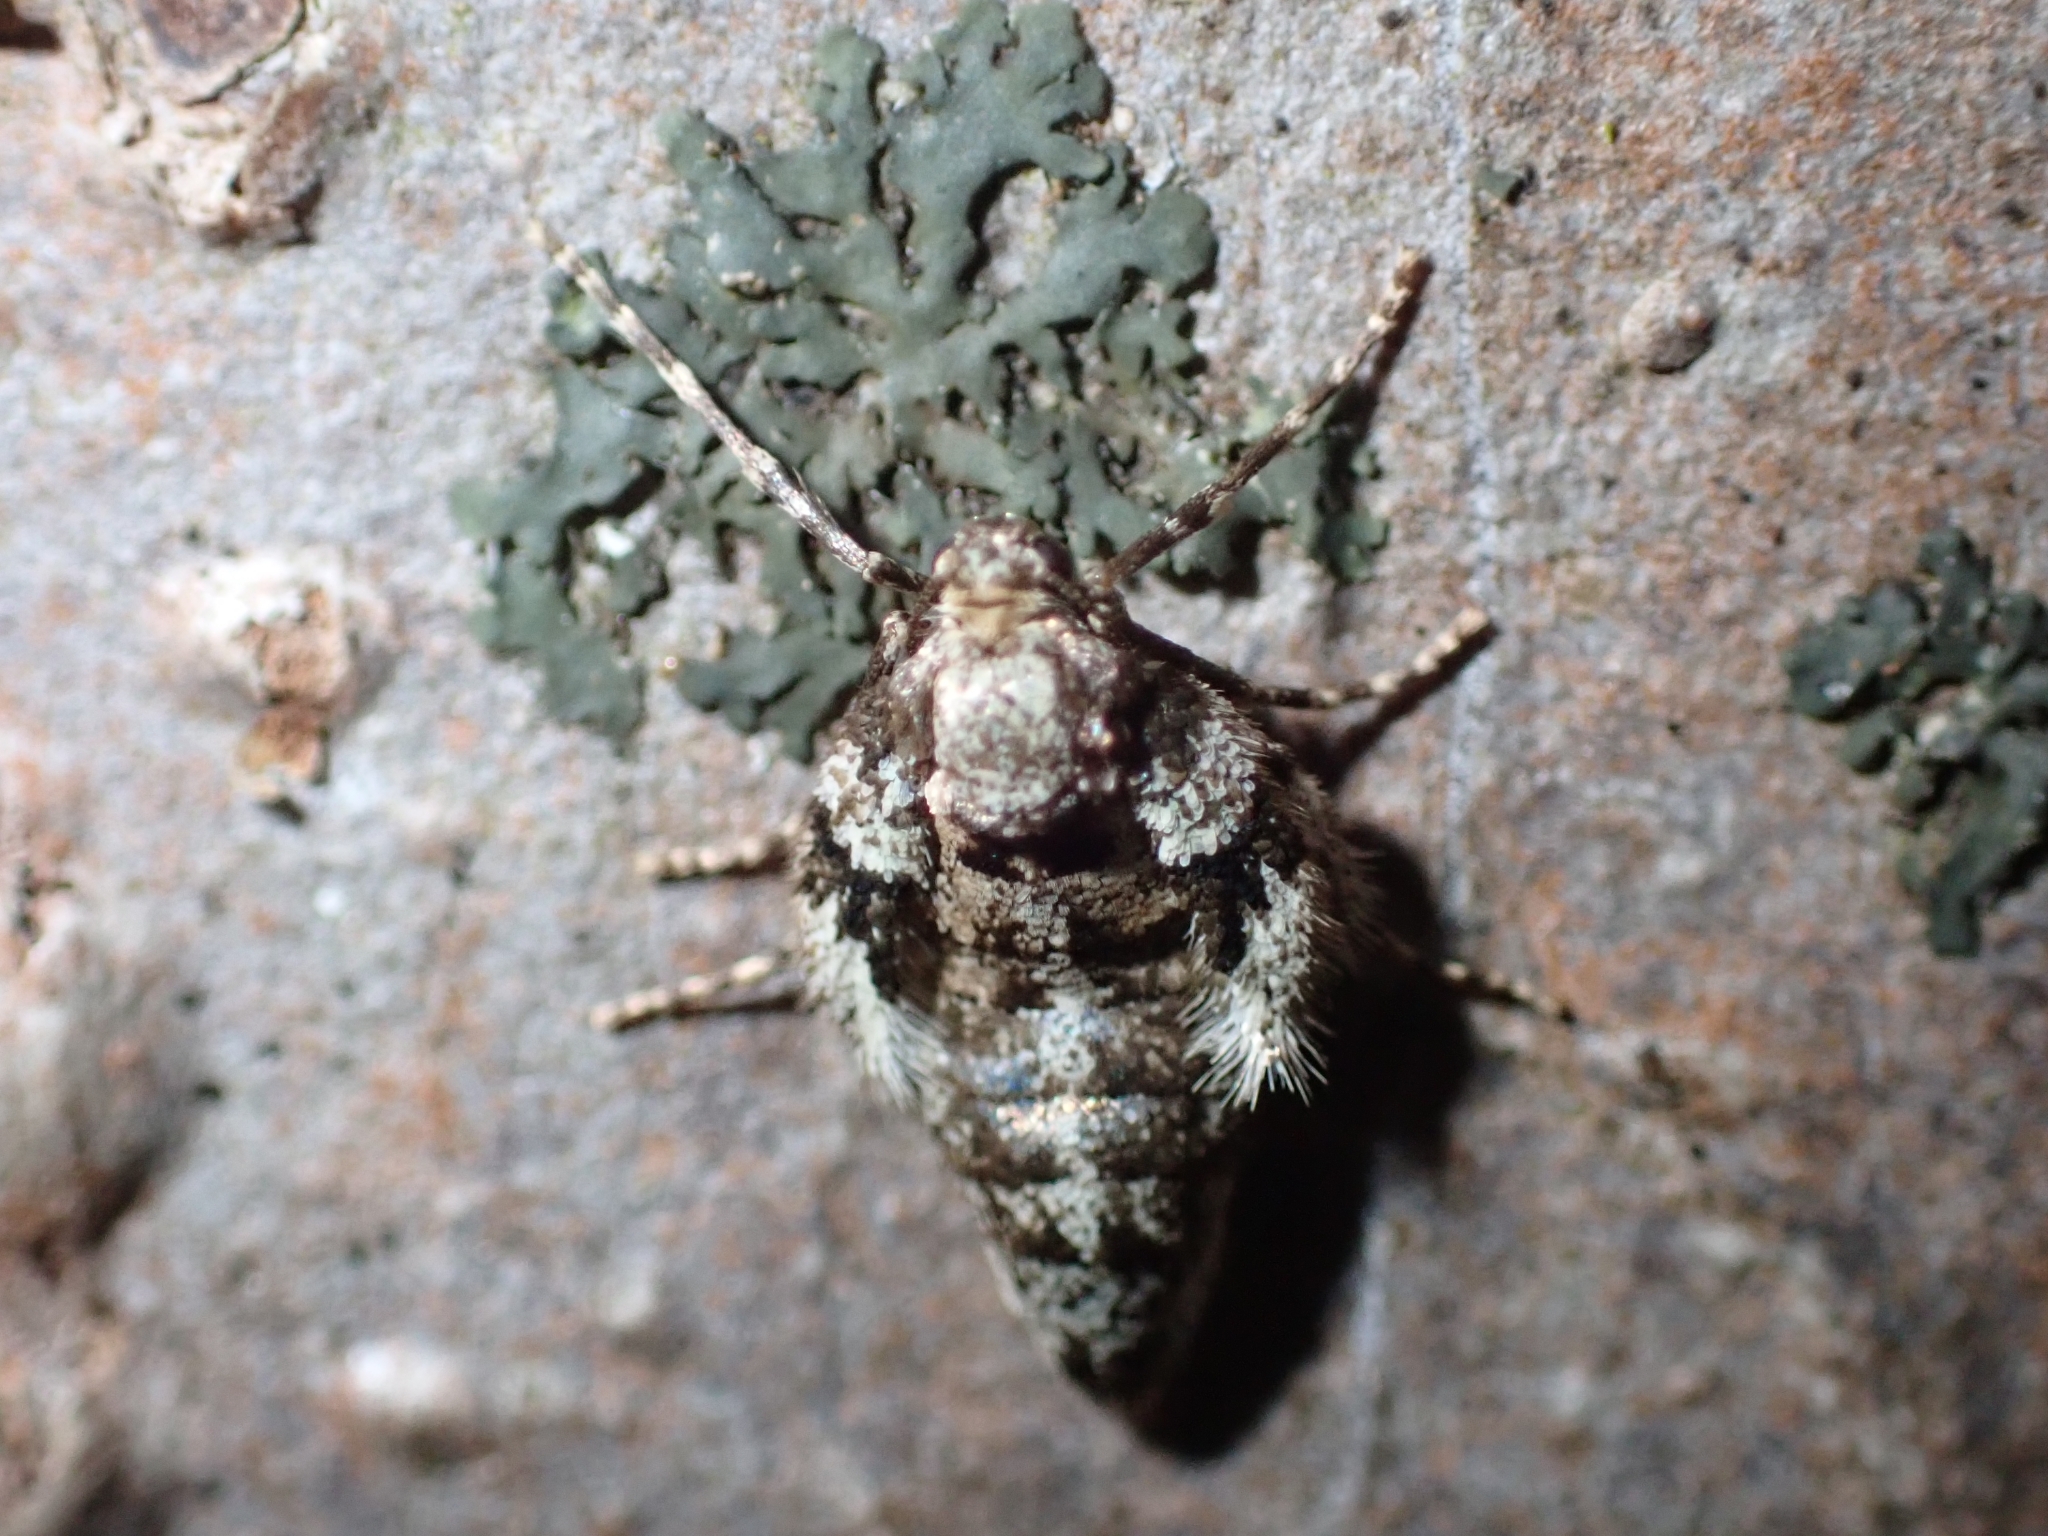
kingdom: Animalia
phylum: Arthropoda
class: Insecta
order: Lepidoptera
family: Geometridae
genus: Operophtera
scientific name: Operophtera fagata
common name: Northern winter moth
